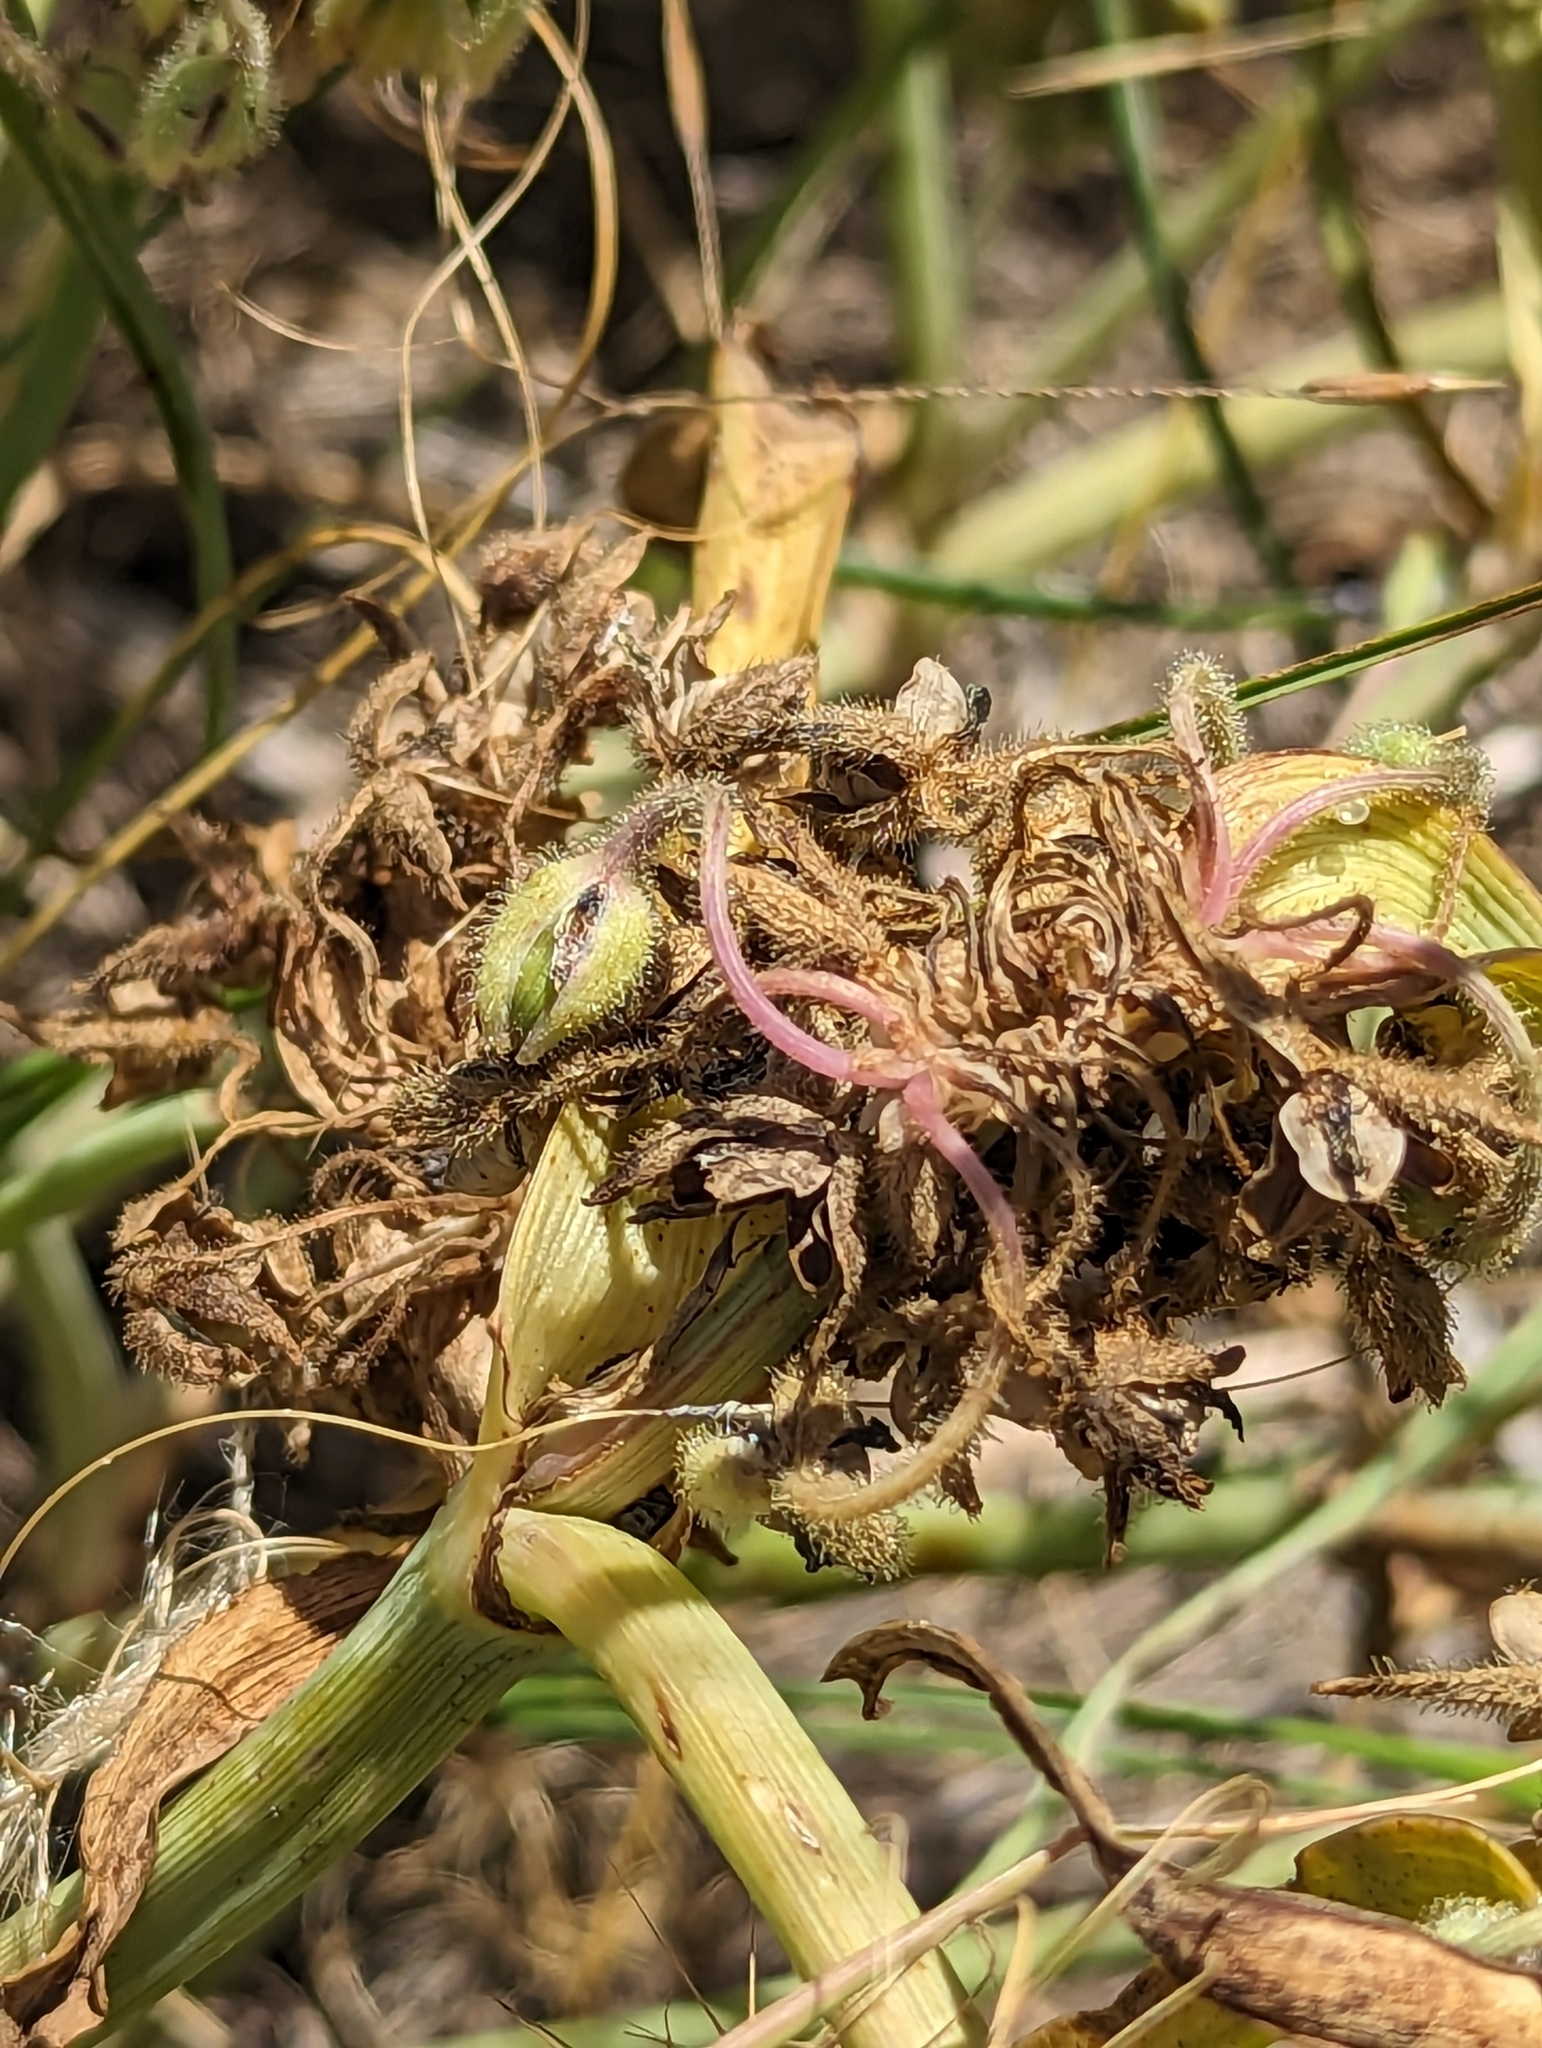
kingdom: Plantae
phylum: Tracheophyta
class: Liliopsida
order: Commelinales
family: Commelinaceae
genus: Tradescantia
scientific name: Tradescantia occidentalis
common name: Prairie spiderwort
